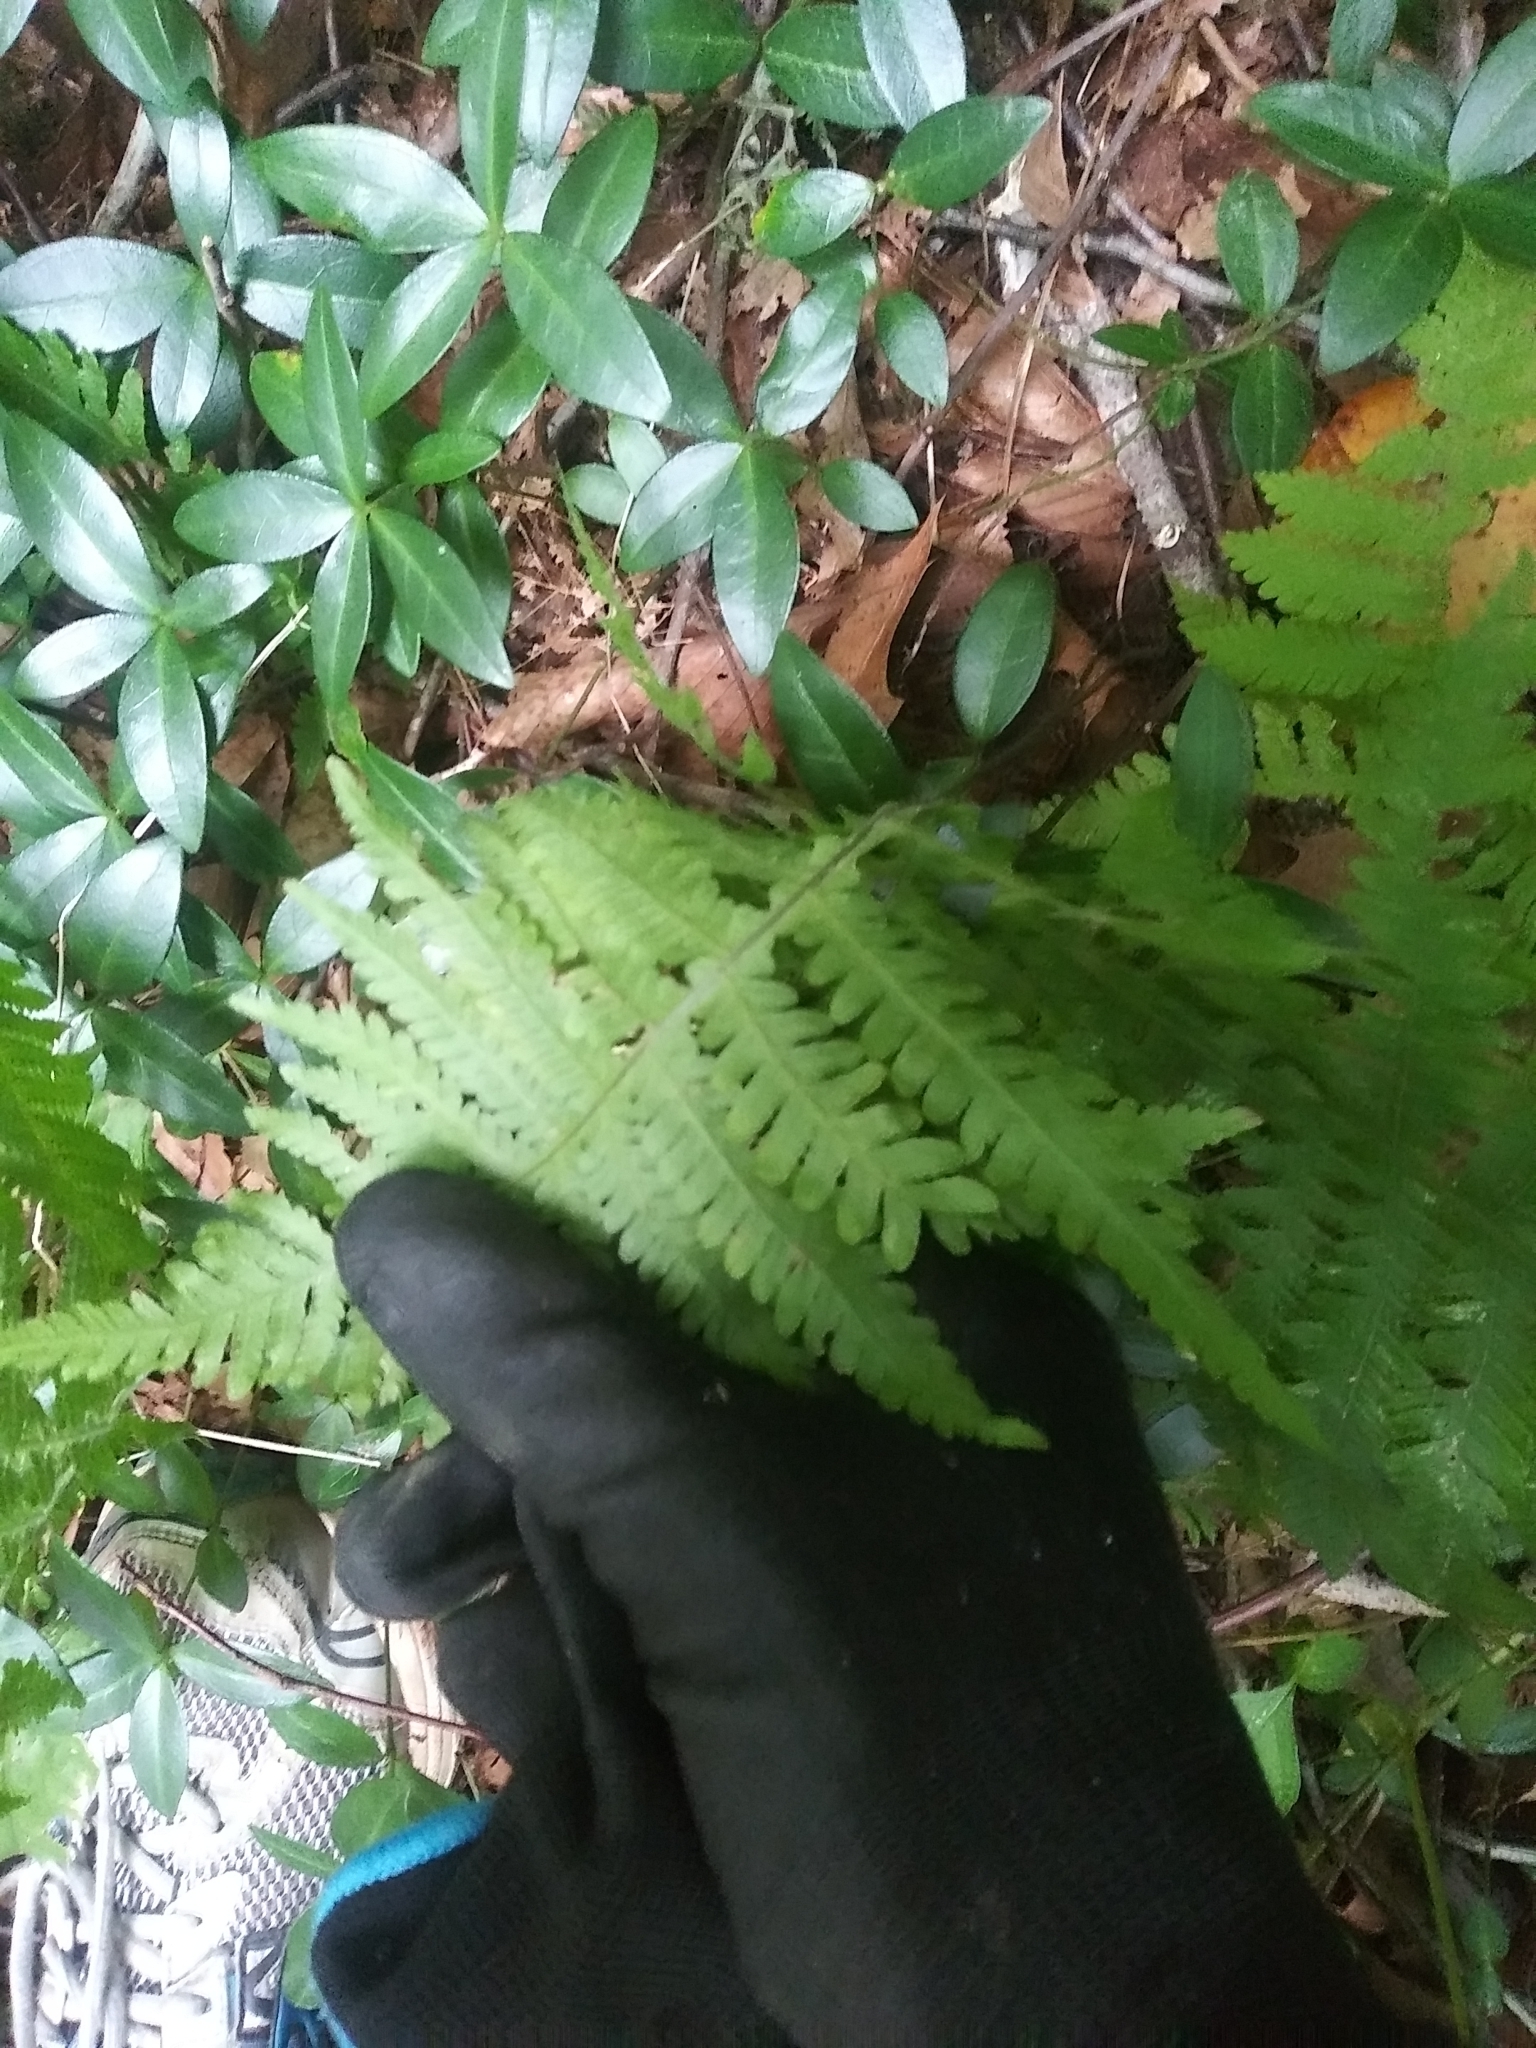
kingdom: Plantae
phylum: Tracheophyta
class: Polypodiopsida
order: Polypodiales
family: Thelypteridaceae
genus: Phegopteris
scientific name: Phegopteris hexagonoptera
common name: Broad beech fern
